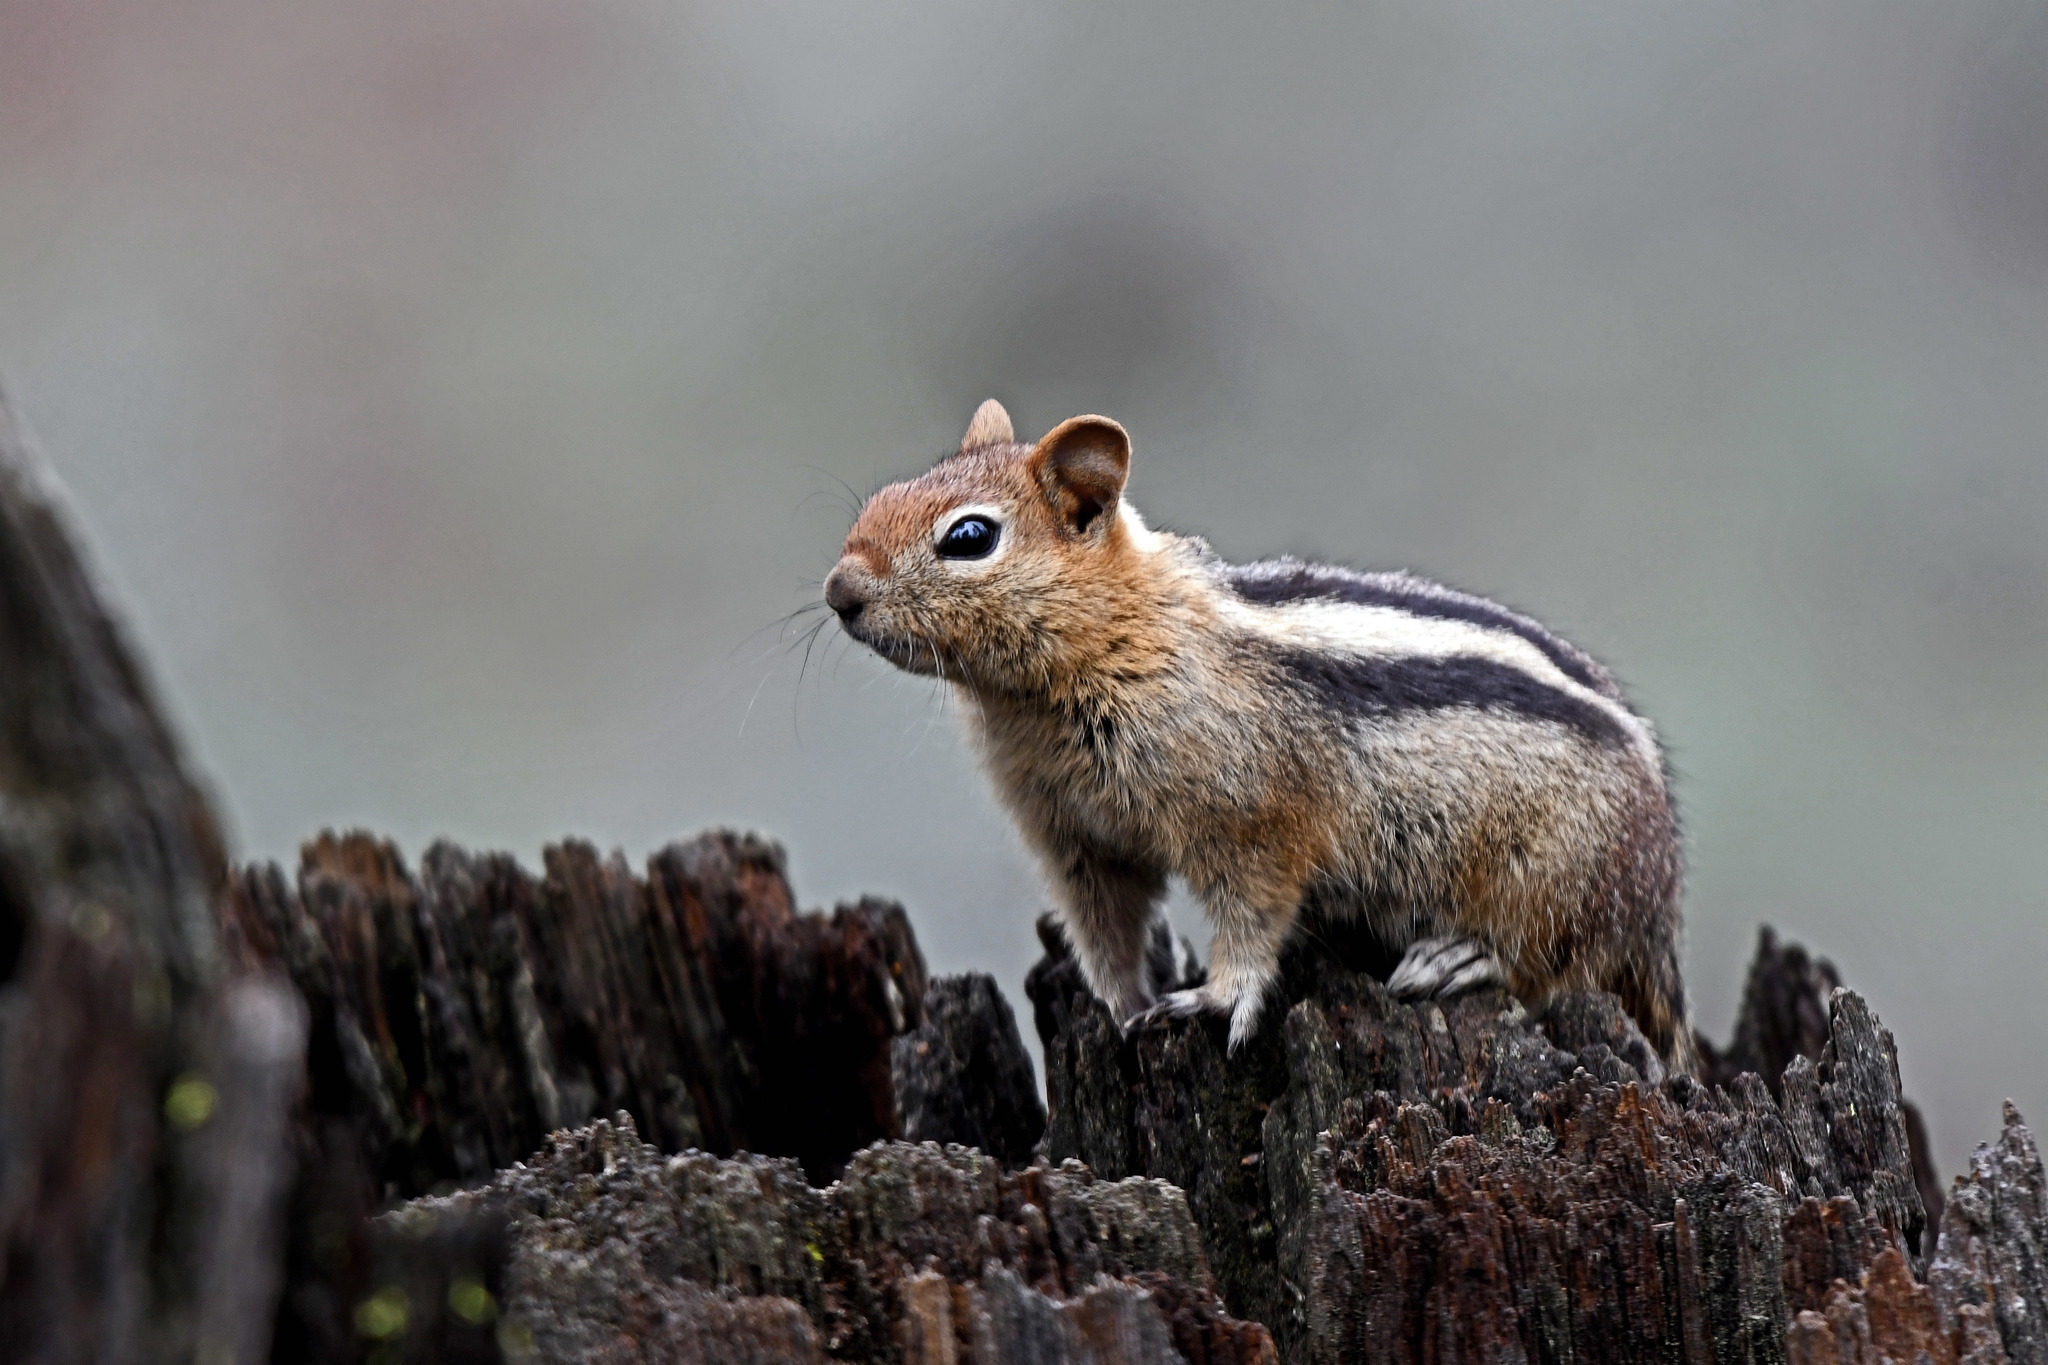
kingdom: Animalia
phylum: Chordata
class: Mammalia
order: Rodentia
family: Sciuridae
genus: Callospermophilus
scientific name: Callospermophilus lateralis
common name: Golden-mantled ground squirrel
